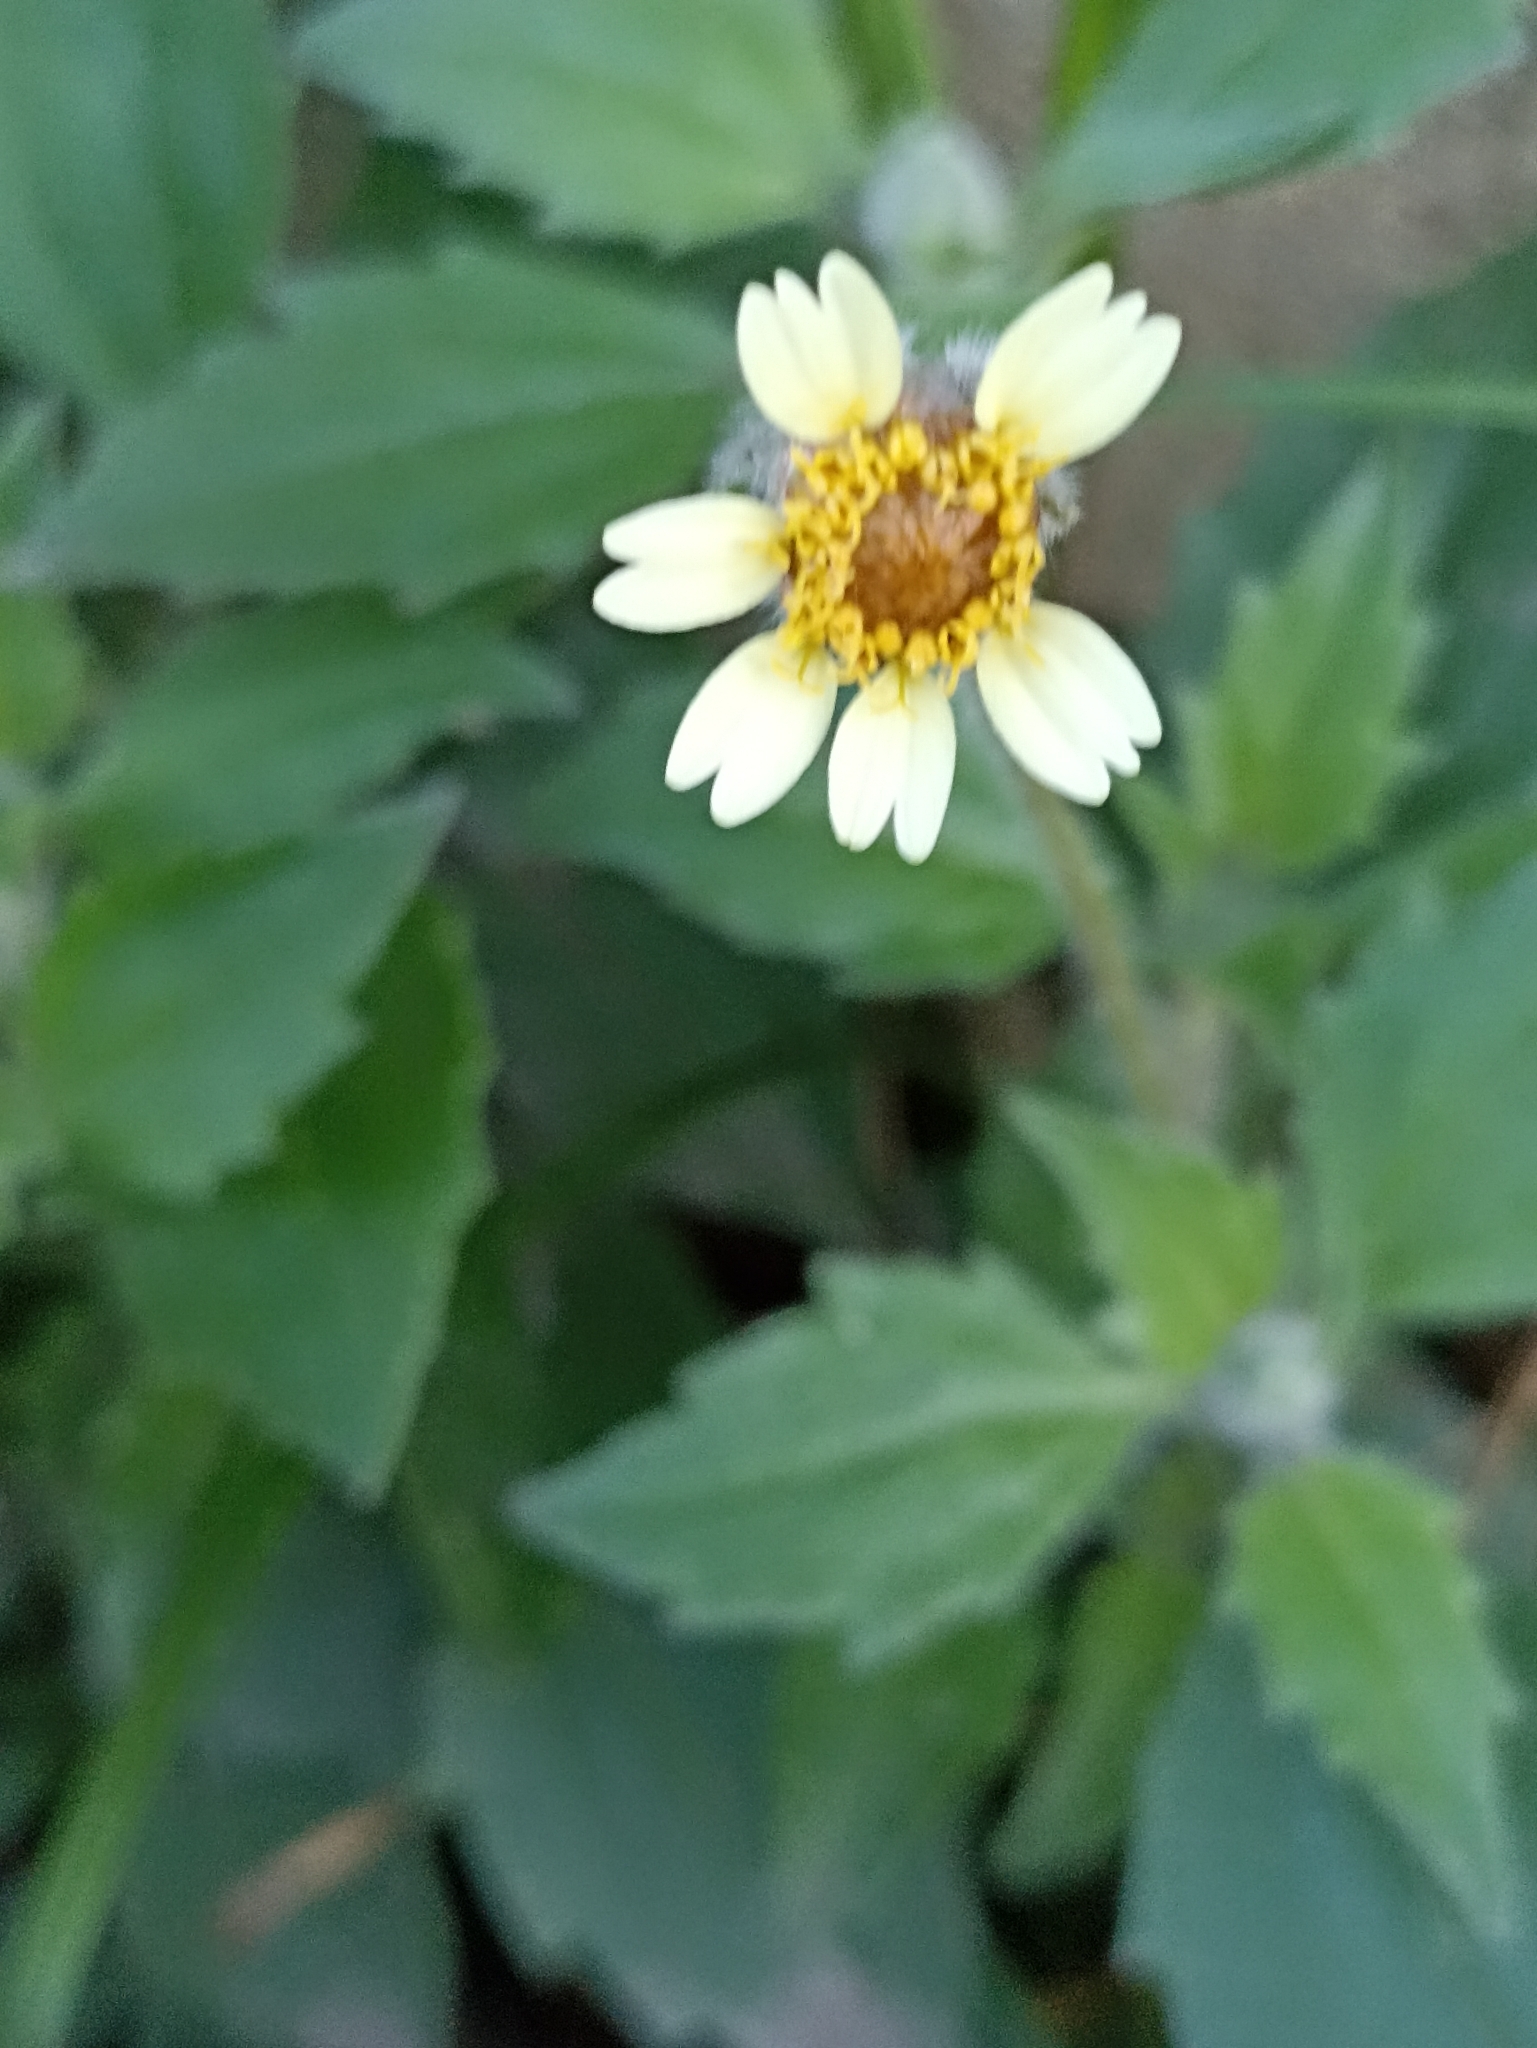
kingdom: Plantae
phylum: Tracheophyta
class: Magnoliopsida
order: Asterales
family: Asteraceae
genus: Tridax
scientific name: Tridax procumbens
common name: Coatbuttons
